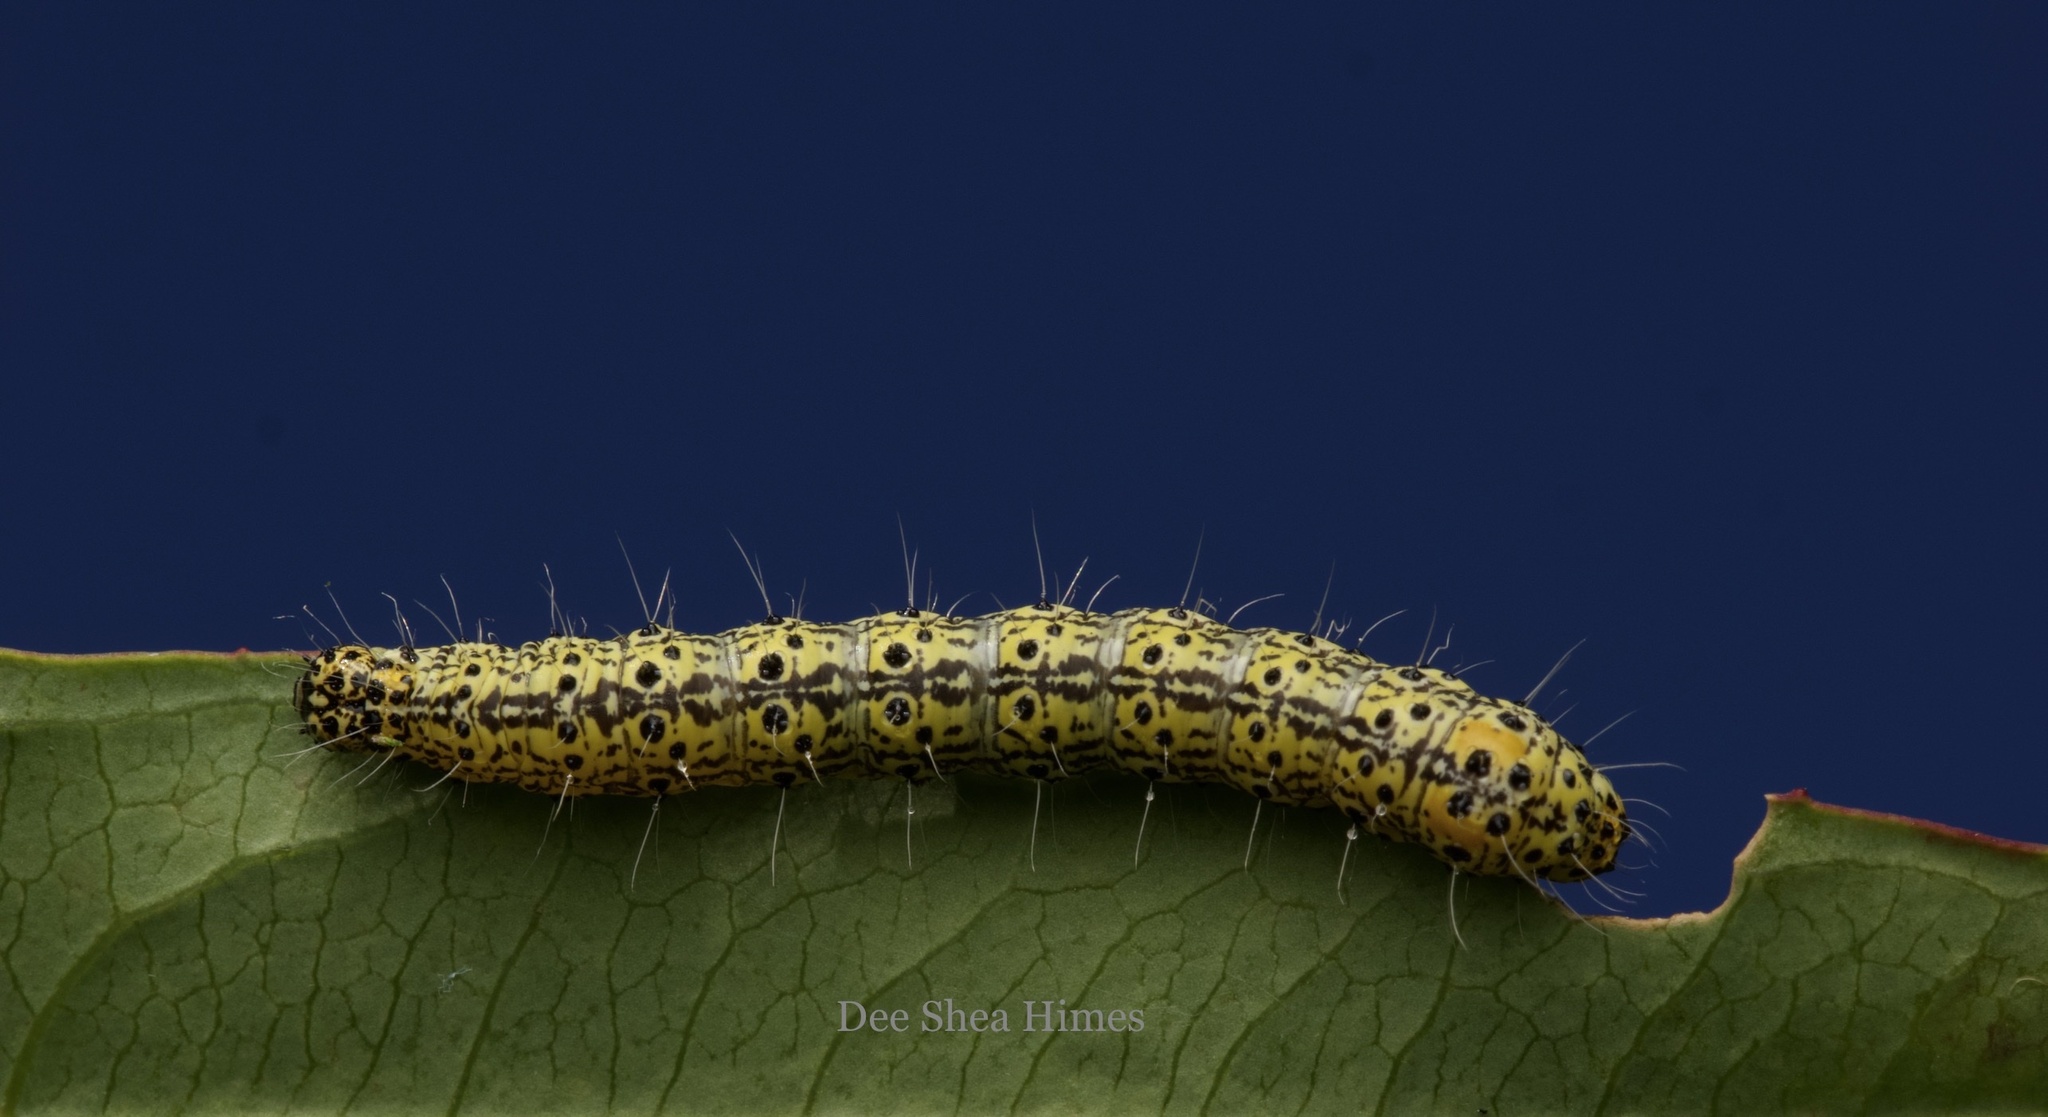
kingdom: Animalia
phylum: Arthropoda
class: Insecta
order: Lepidoptera
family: Noctuidae
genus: Alypia
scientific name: Alypia maccullochii
